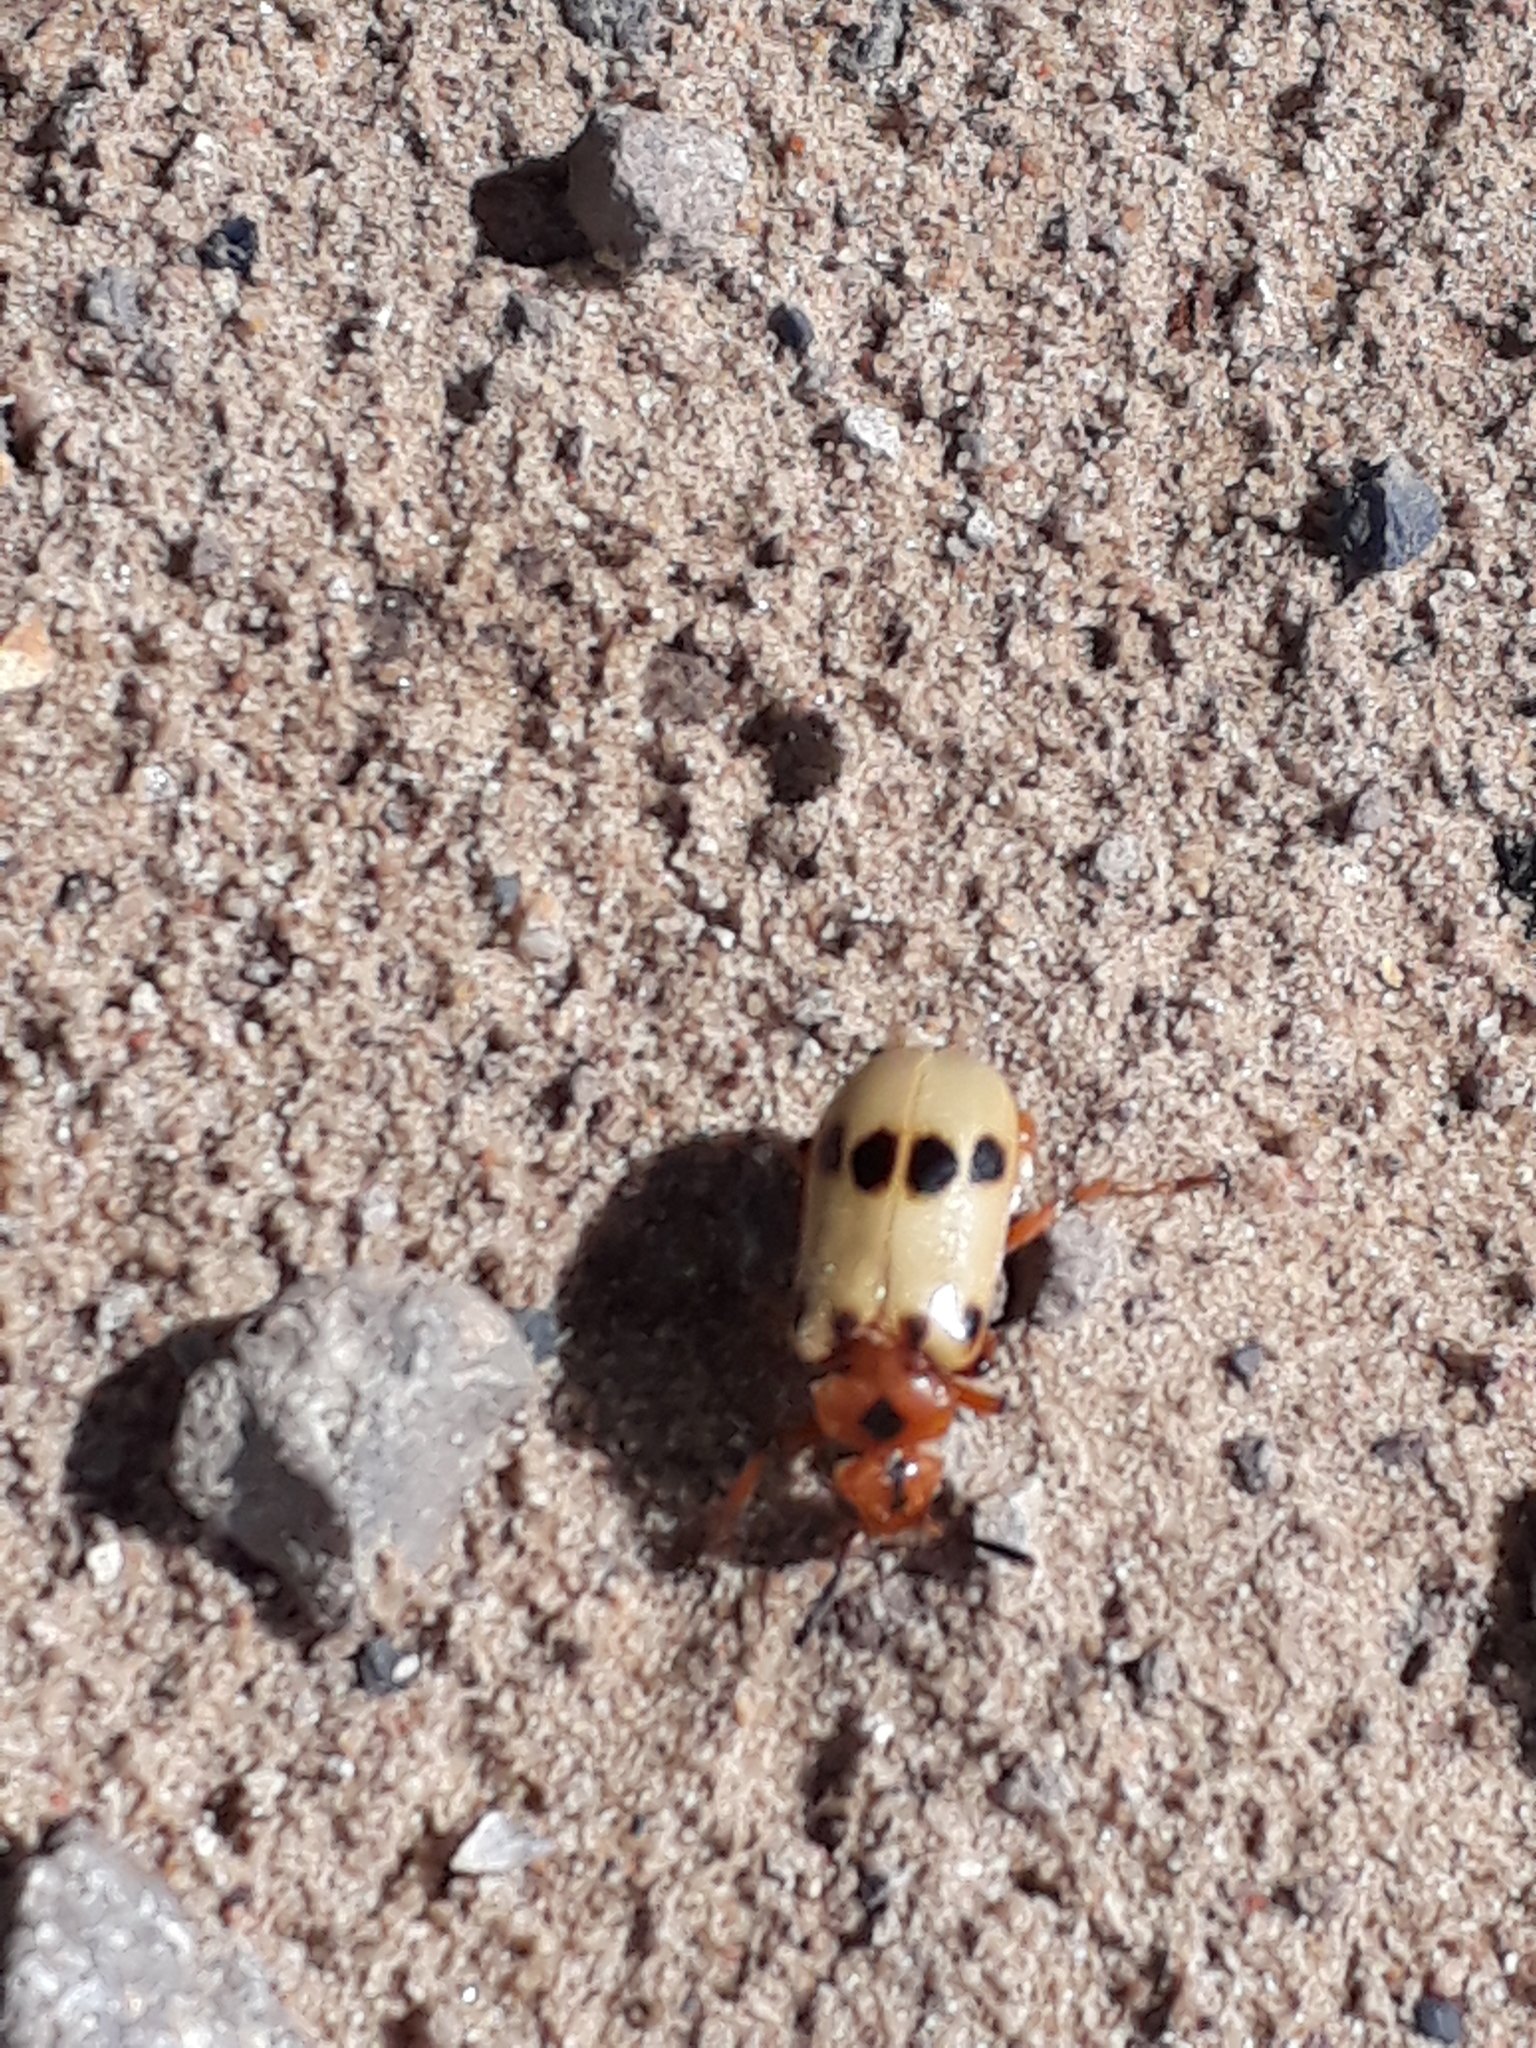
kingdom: Animalia
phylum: Arthropoda
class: Insecta
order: Coleoptera
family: Meloidae
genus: Tetraonyx
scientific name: Tetraonyx
